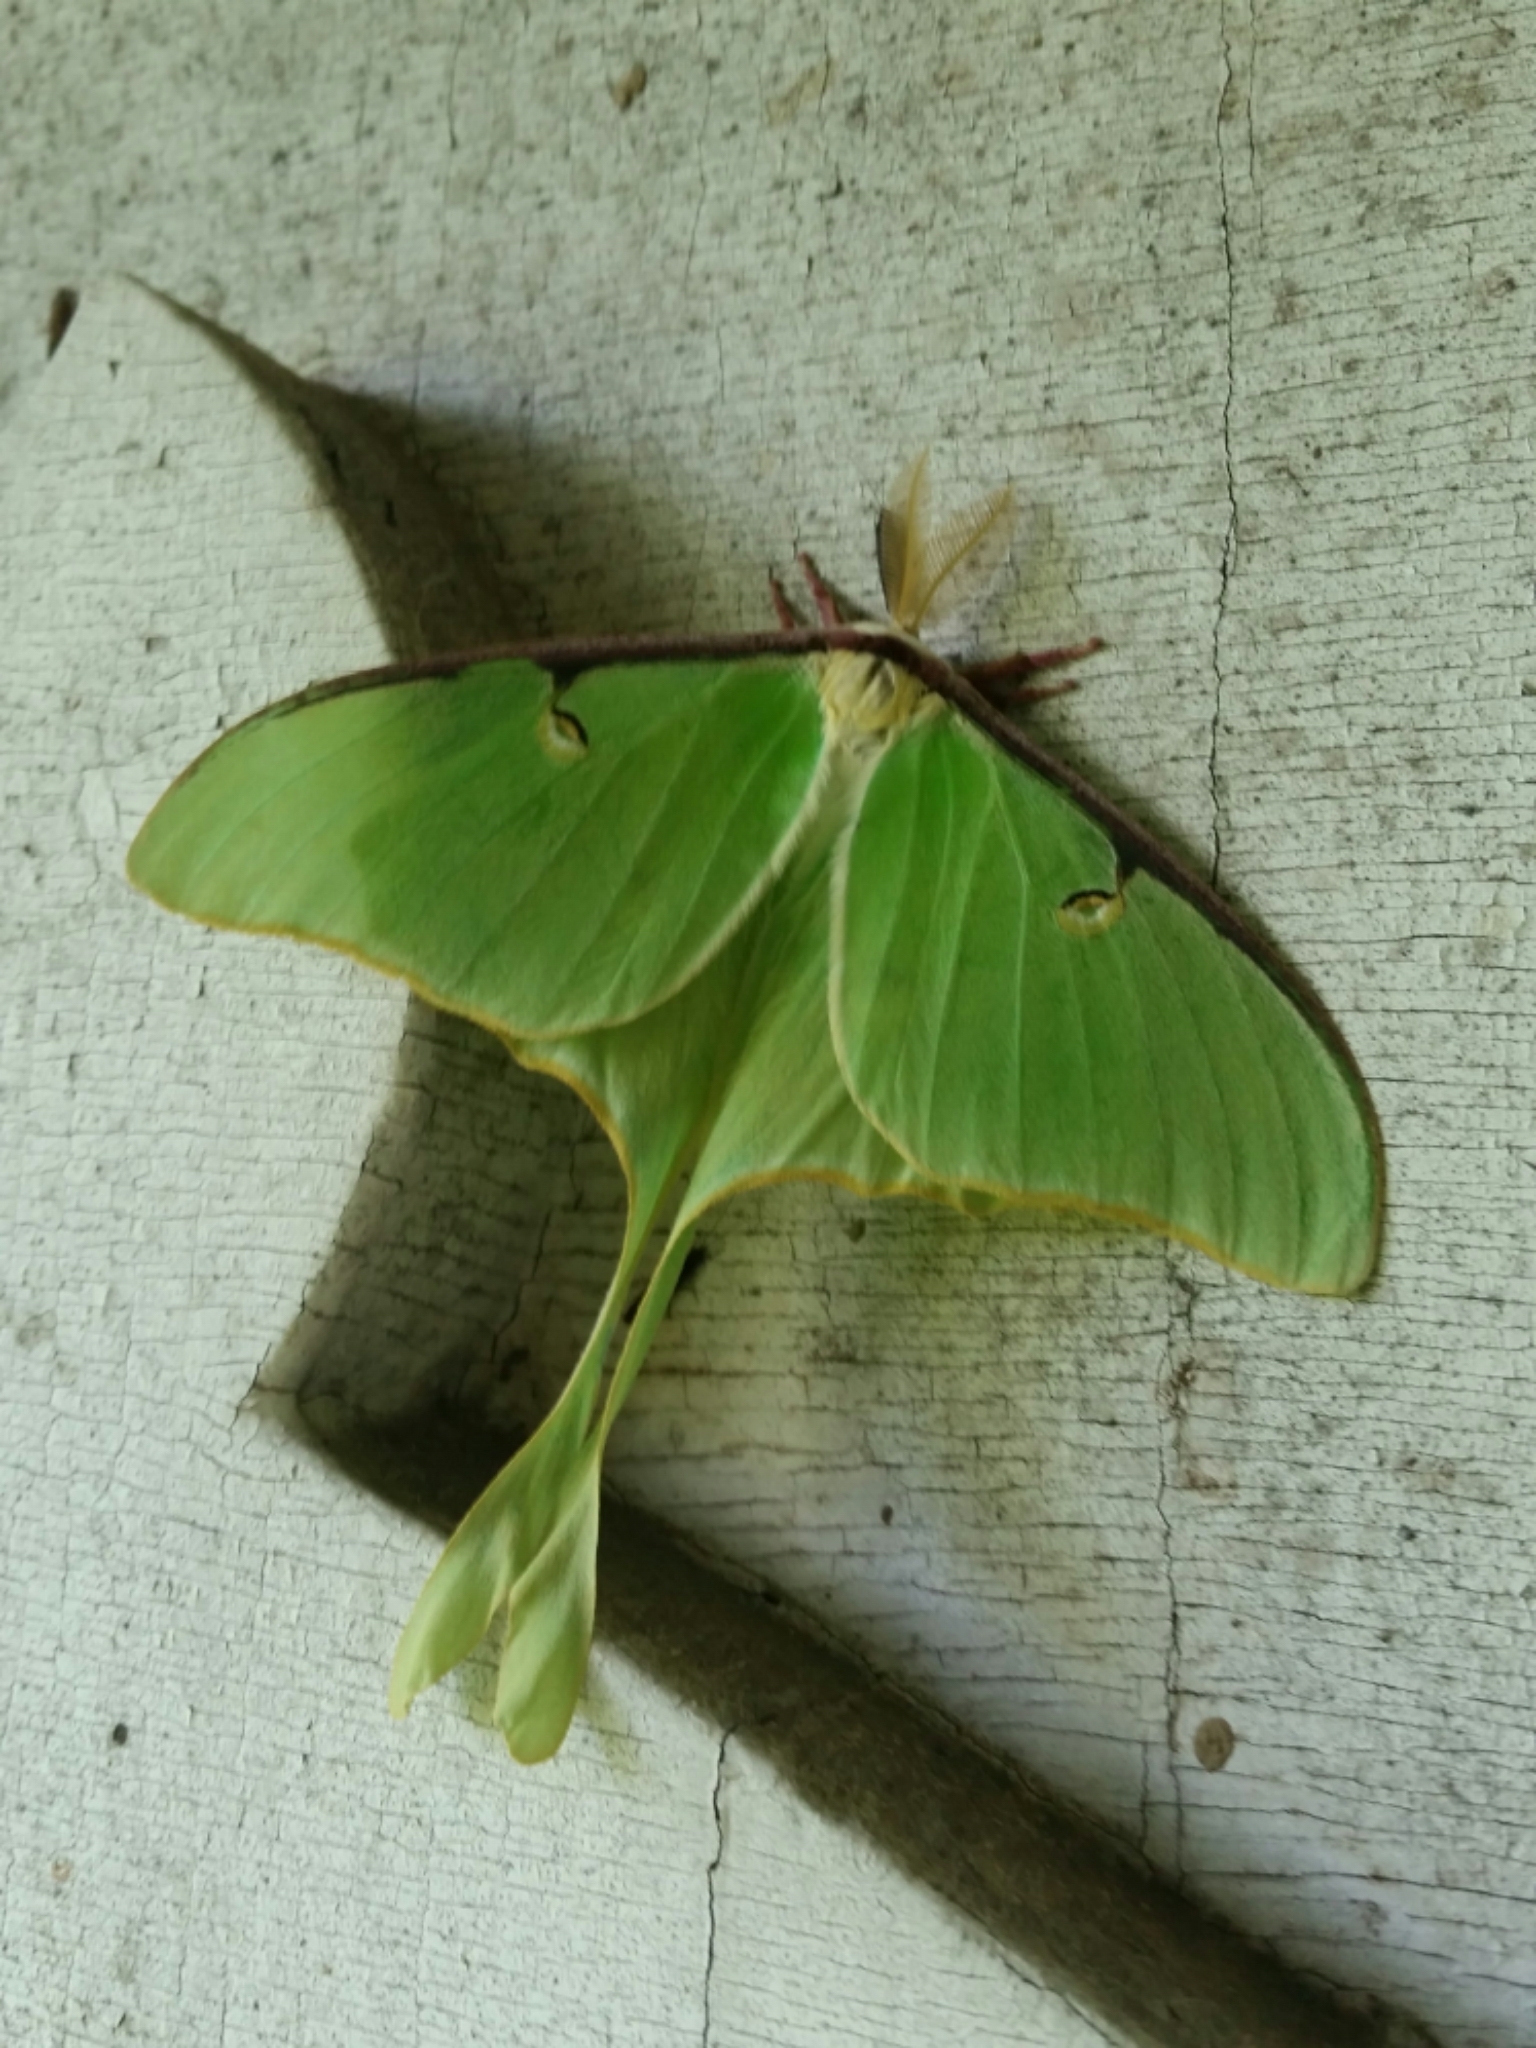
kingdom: Animalia
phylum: Arthropoda
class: Insecta
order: Lepidoptera
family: Saturniidae
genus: Actias
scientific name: Actias luna
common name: Luna moth
